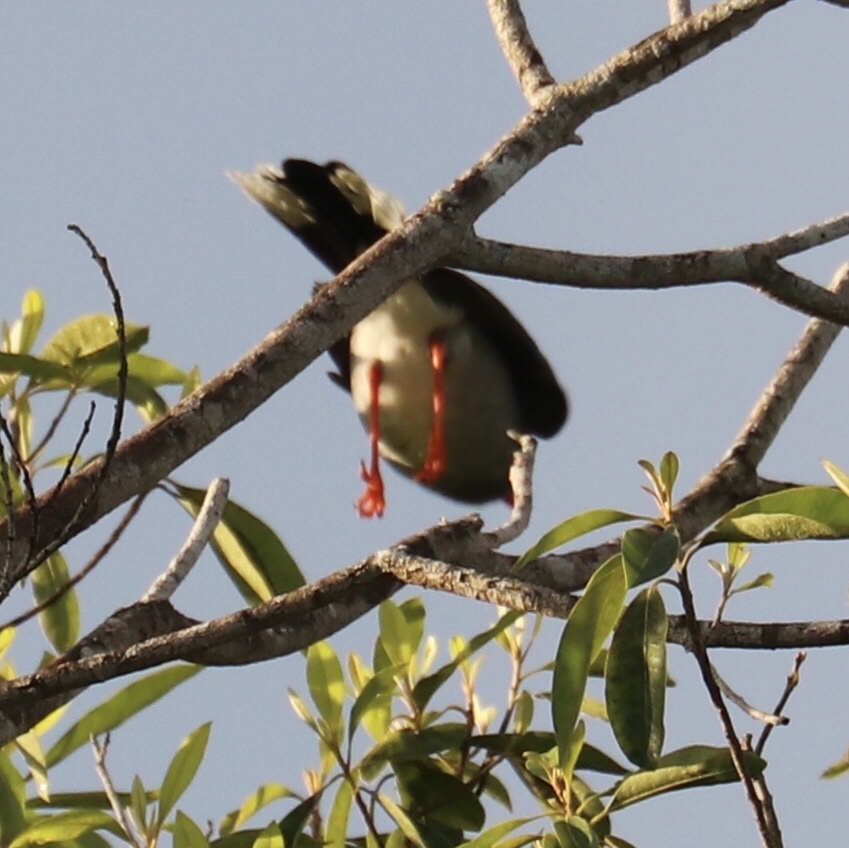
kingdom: Animalia
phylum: Chordata
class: Aves
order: Passeriformes
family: Turdidae
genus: Turdus
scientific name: Turdus plumbeus
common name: Red-legged thrush
